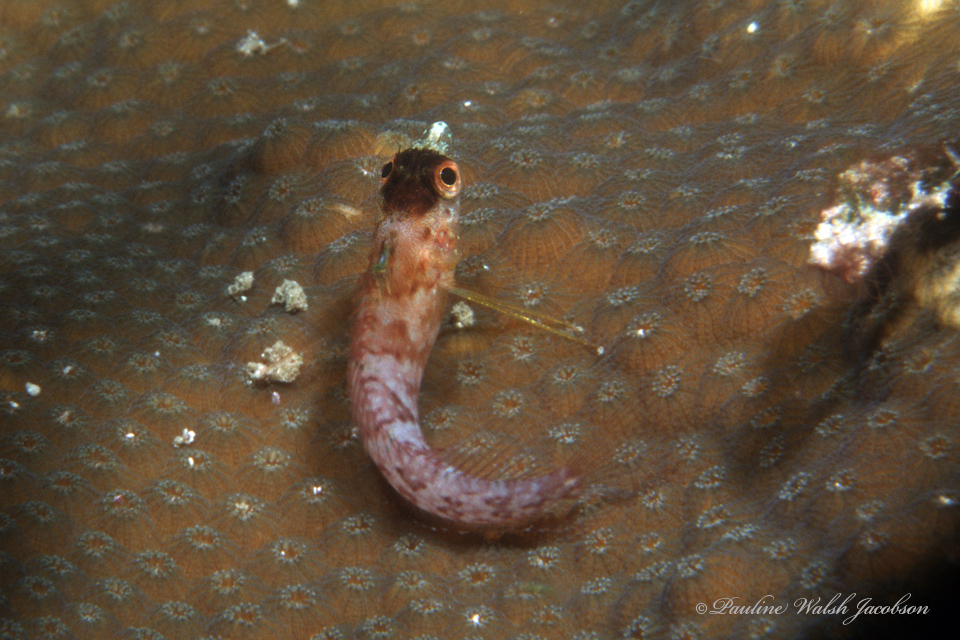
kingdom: Animalia
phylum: Chordata
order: Perciformes
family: Labrisomidae
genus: Malacoctenus
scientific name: Malacoctenus boehlkei
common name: Diamond blenny
